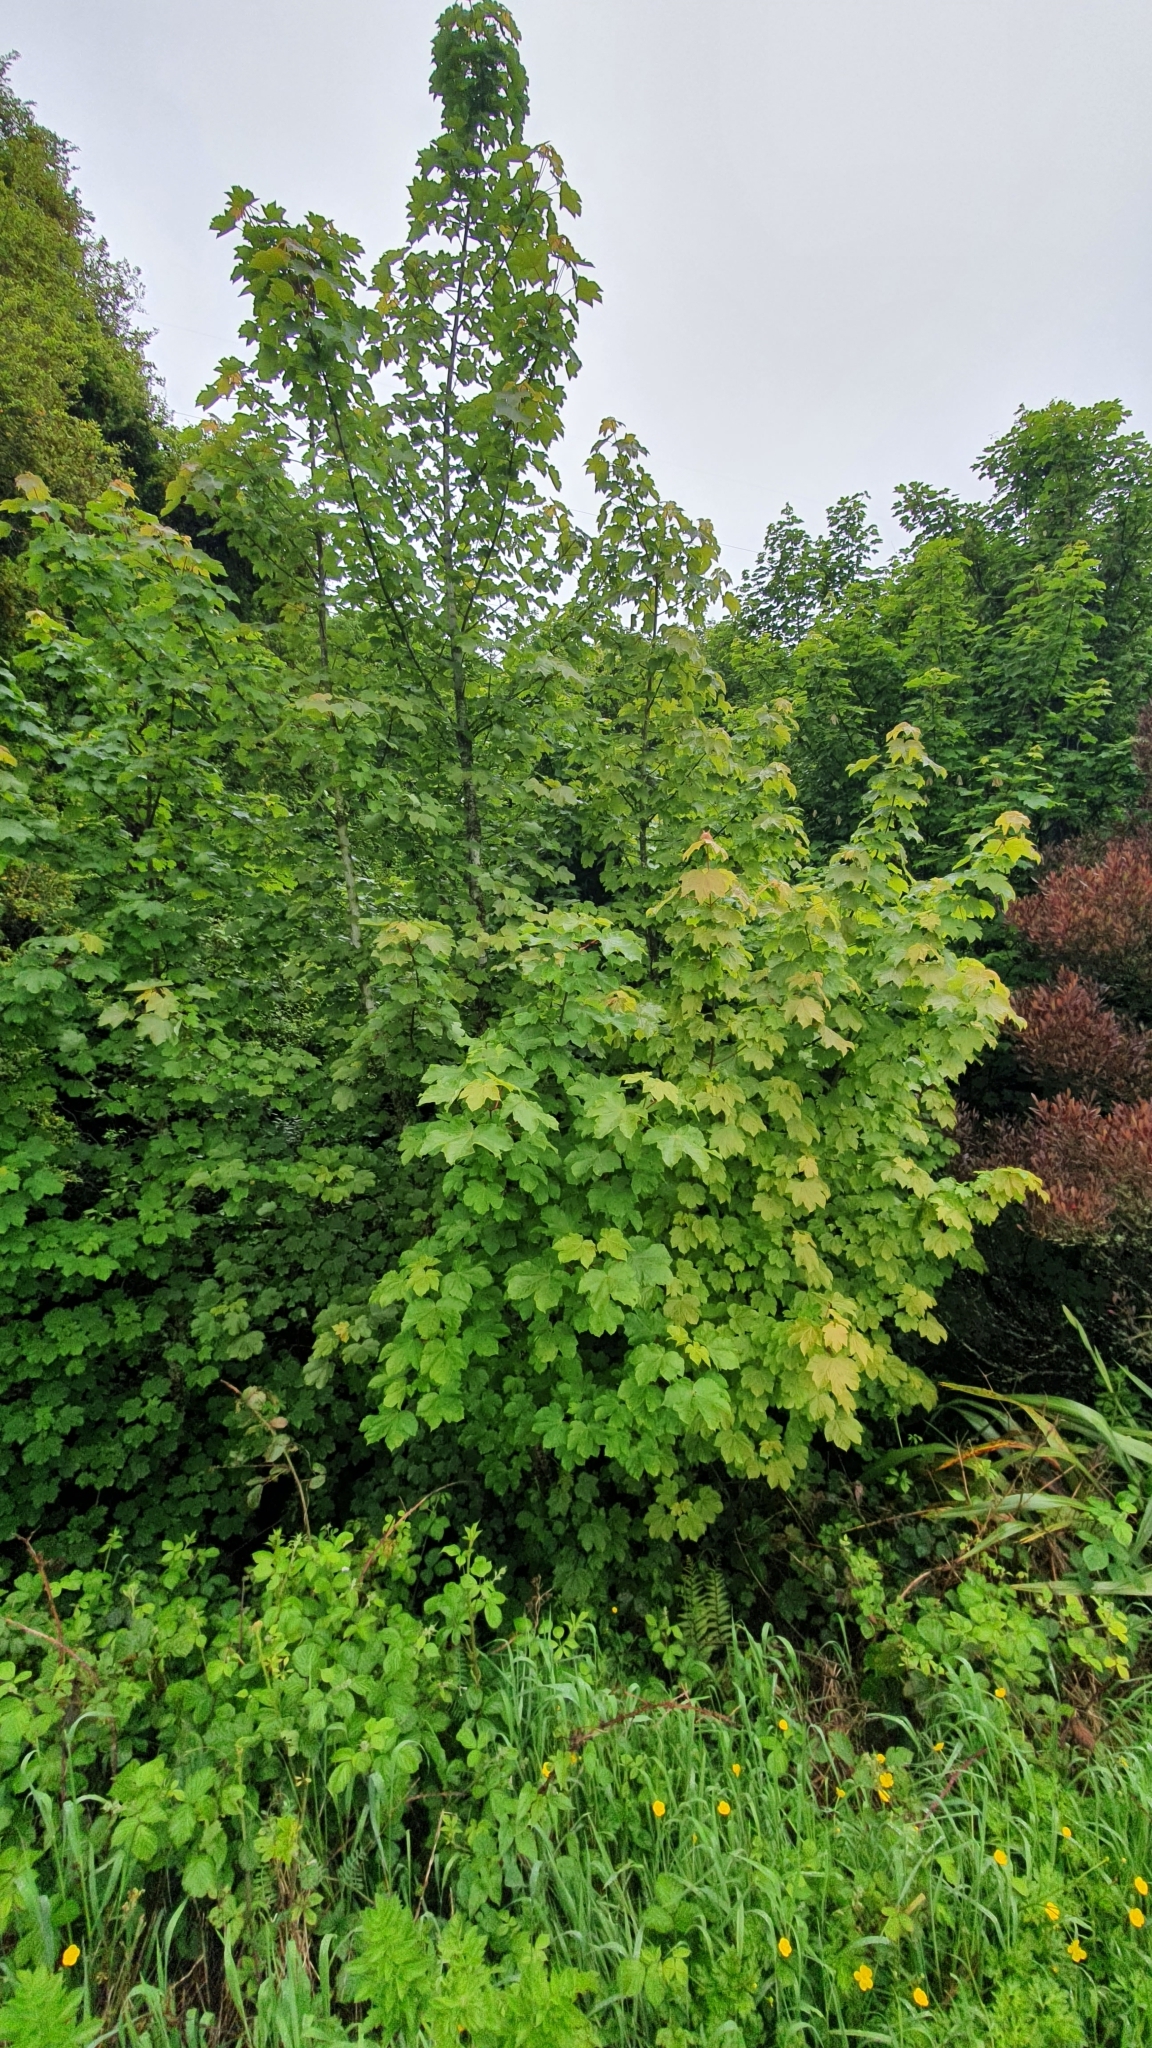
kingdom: Plantae
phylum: Tracheophyta
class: Magnoliopsida
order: Sapindales
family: Sapindaceae
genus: Acer
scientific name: Acer pseudoplatanus
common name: Sycamore
